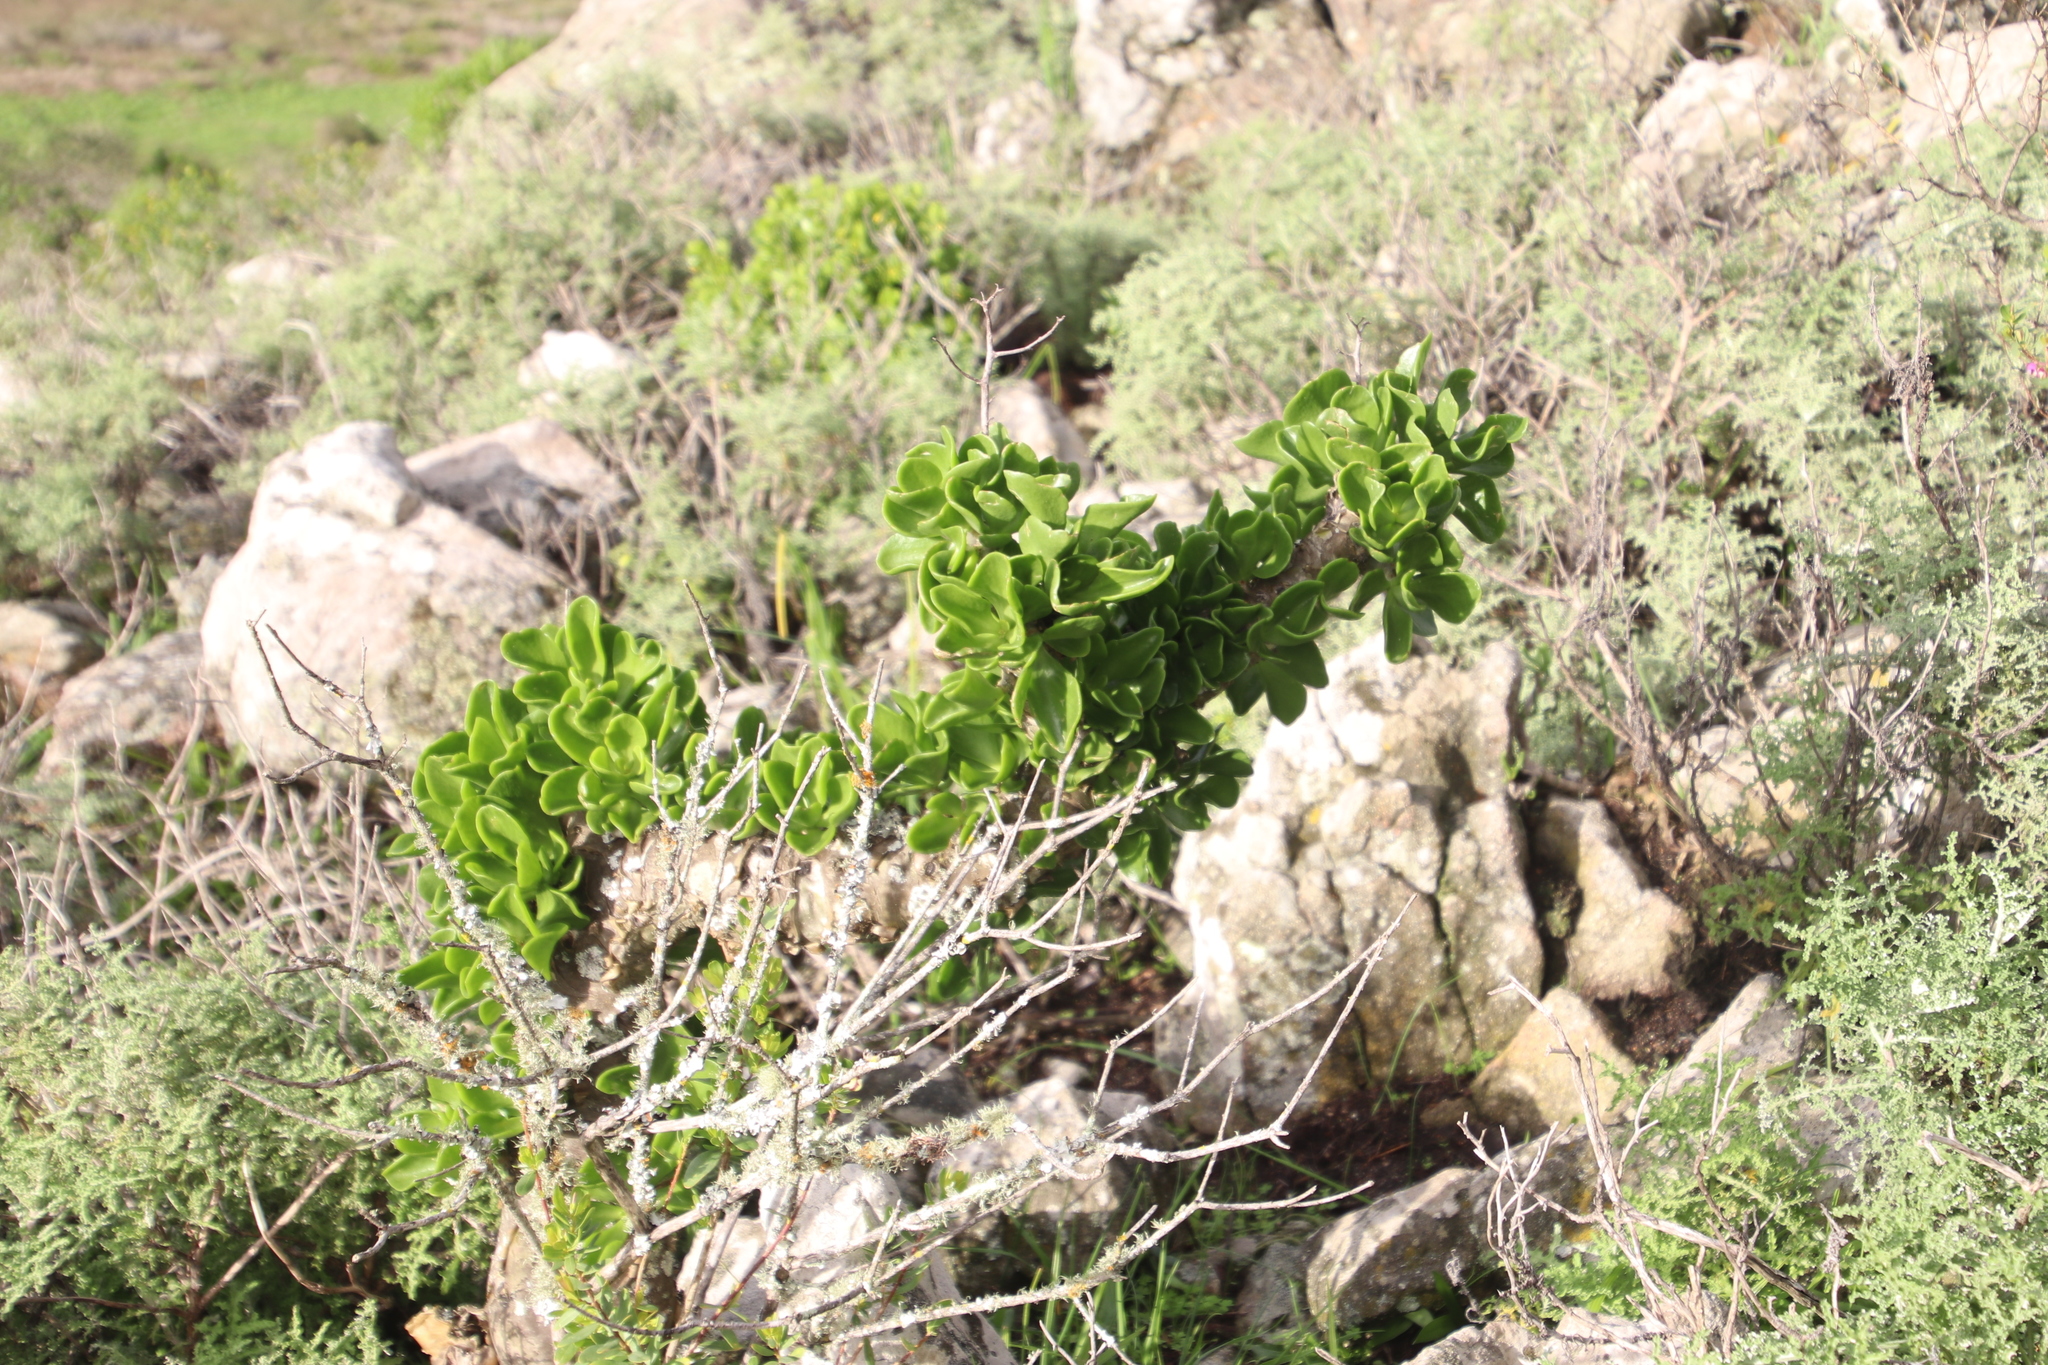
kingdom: Plantae
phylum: Tracheophyta
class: Magnoliopsida
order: Saxifragales
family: Crassulaceae
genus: Tylecodon
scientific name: Tylecodon paniculatus
